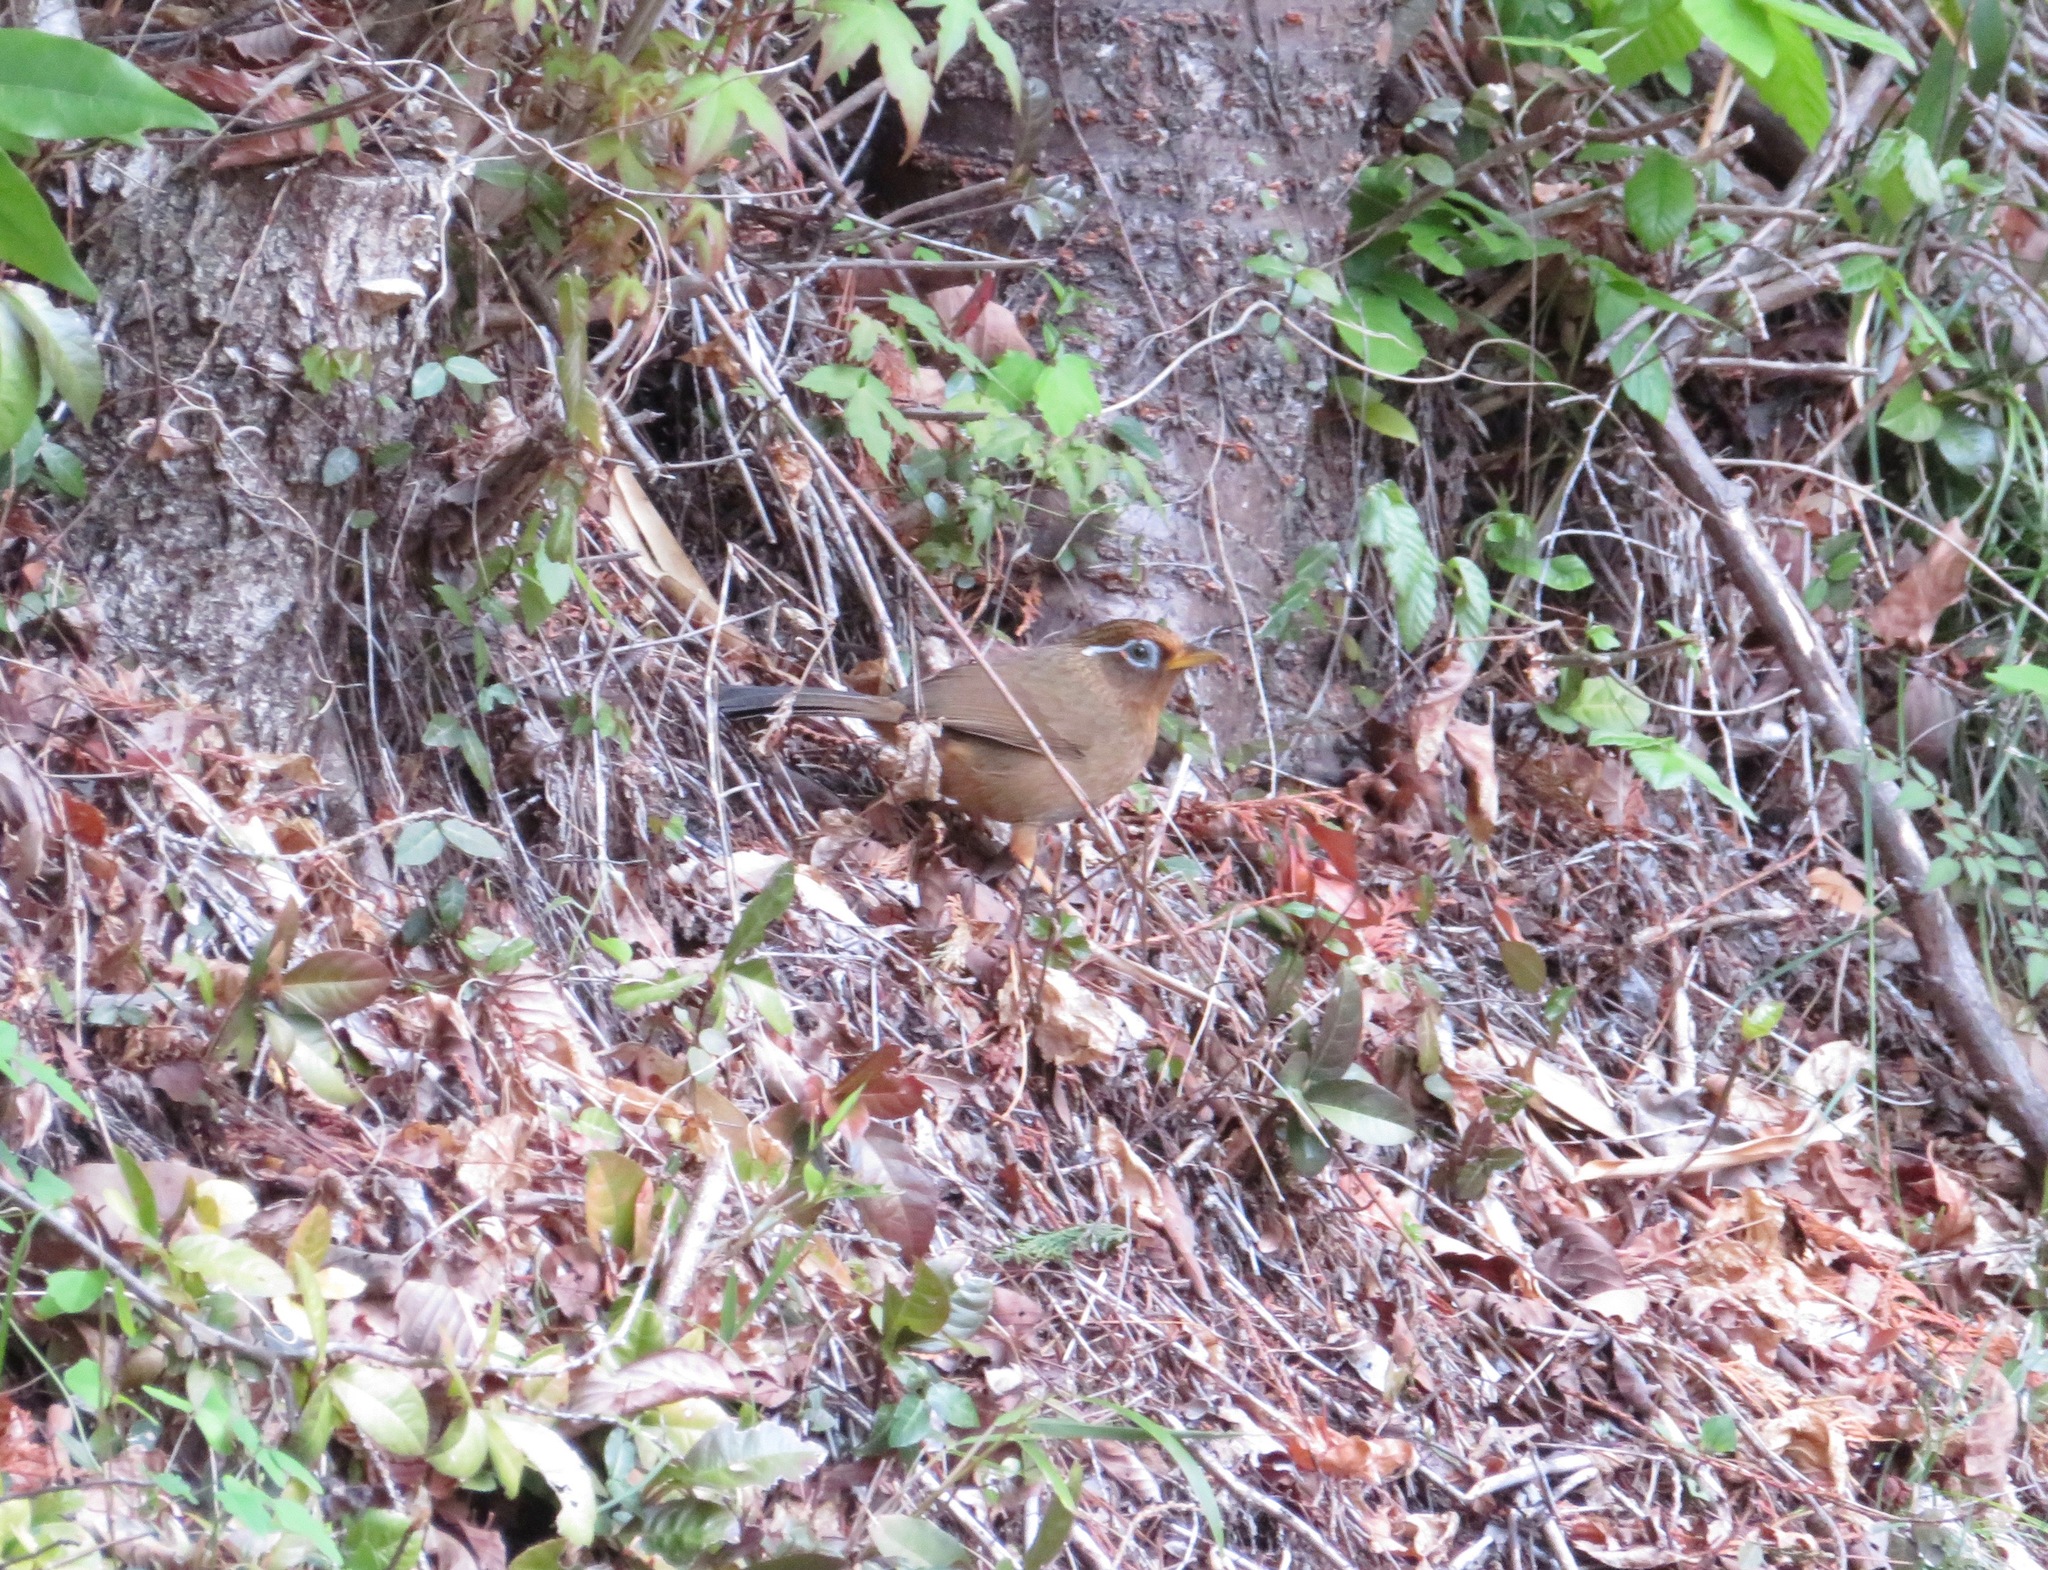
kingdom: Animalia
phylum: Chordata
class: Aves
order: Passeriformes
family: Leiothrichidae
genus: Garrulax
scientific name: Garrulax canorus
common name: Chinese hwamei
